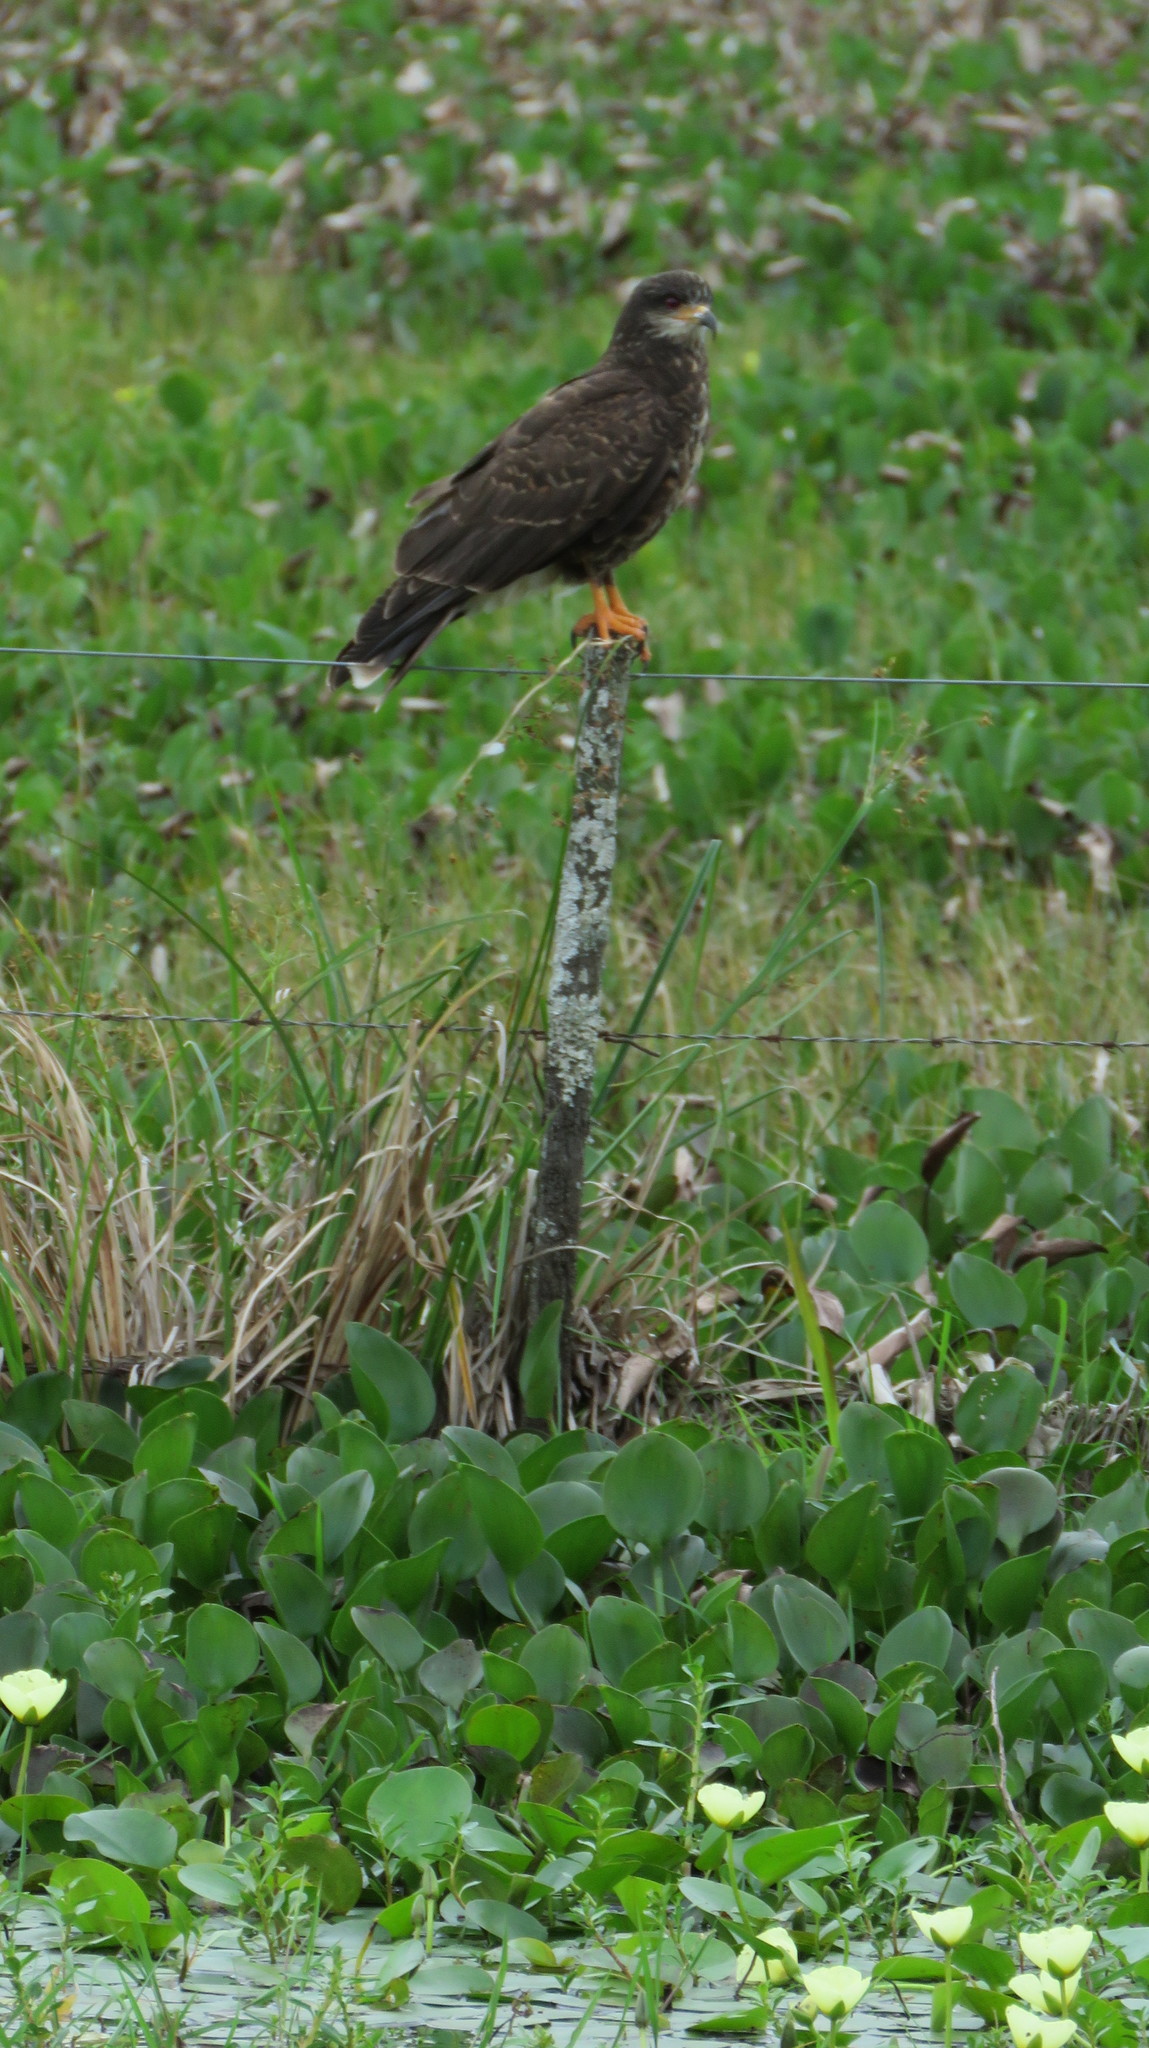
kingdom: Animalia
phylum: Chordata
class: Aves
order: Accipitriformes
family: Accipitridae
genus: Rostrhamus
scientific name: Rostrhamus sociabilis
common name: Snail kite
